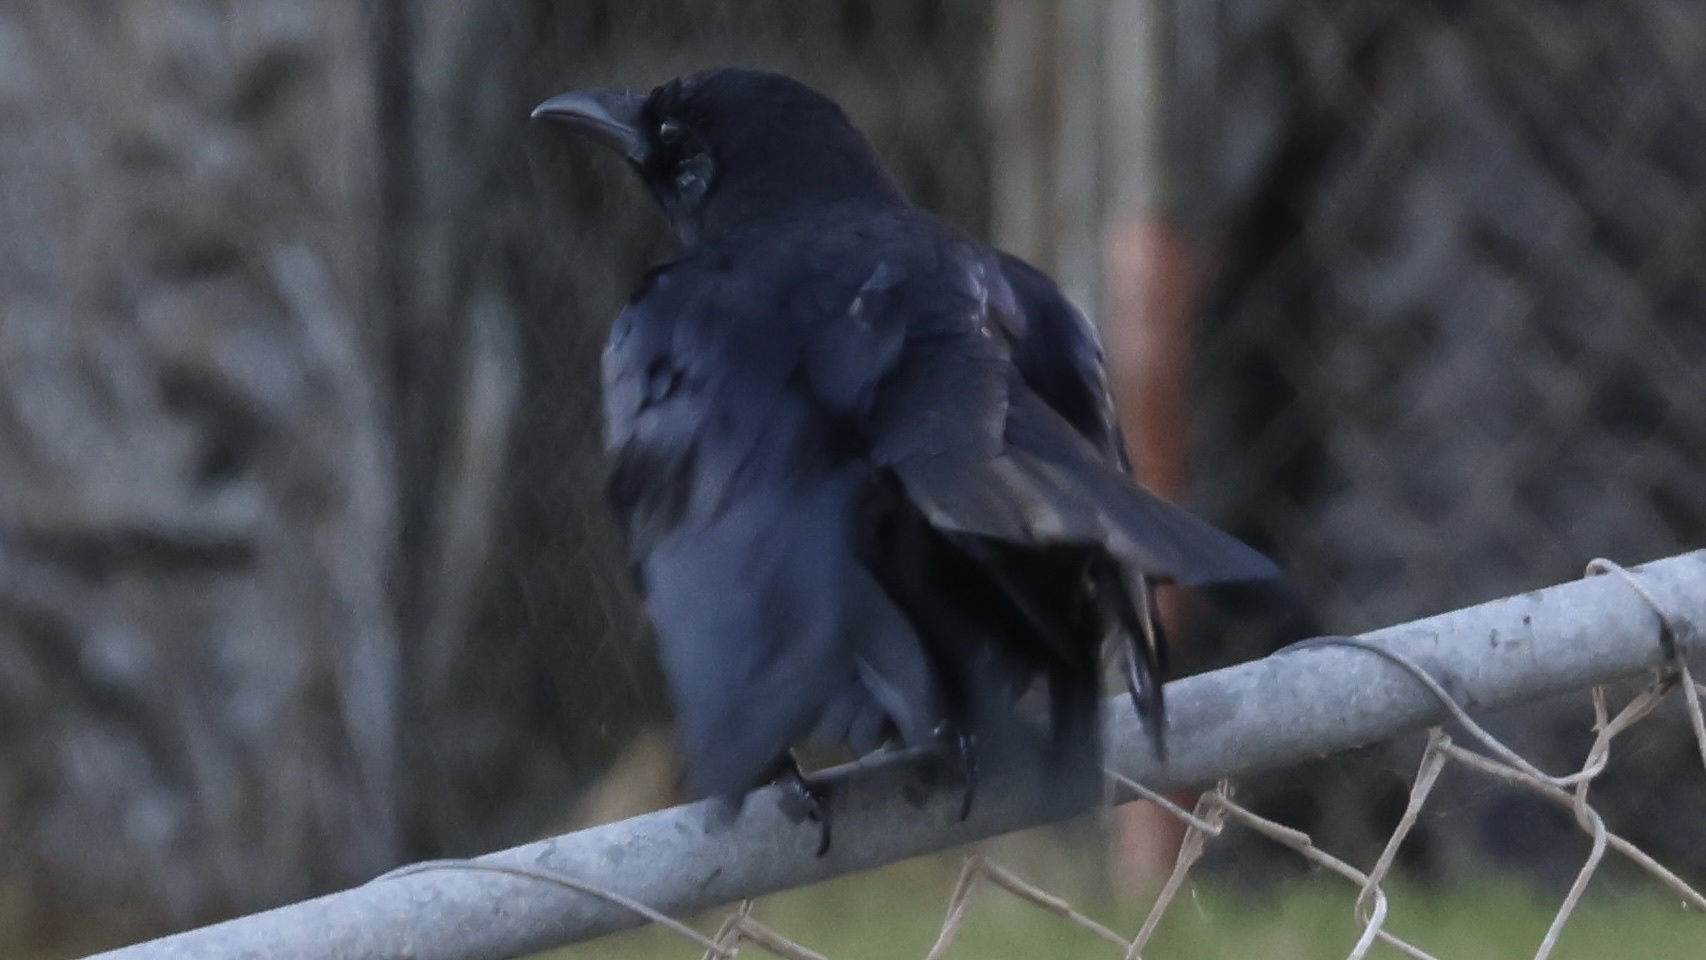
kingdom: Animalia
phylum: Chordata
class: Aves
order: Passeriformes
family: Corvidae
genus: Corvus
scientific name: Corvus brachyrhynchos
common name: American crow
